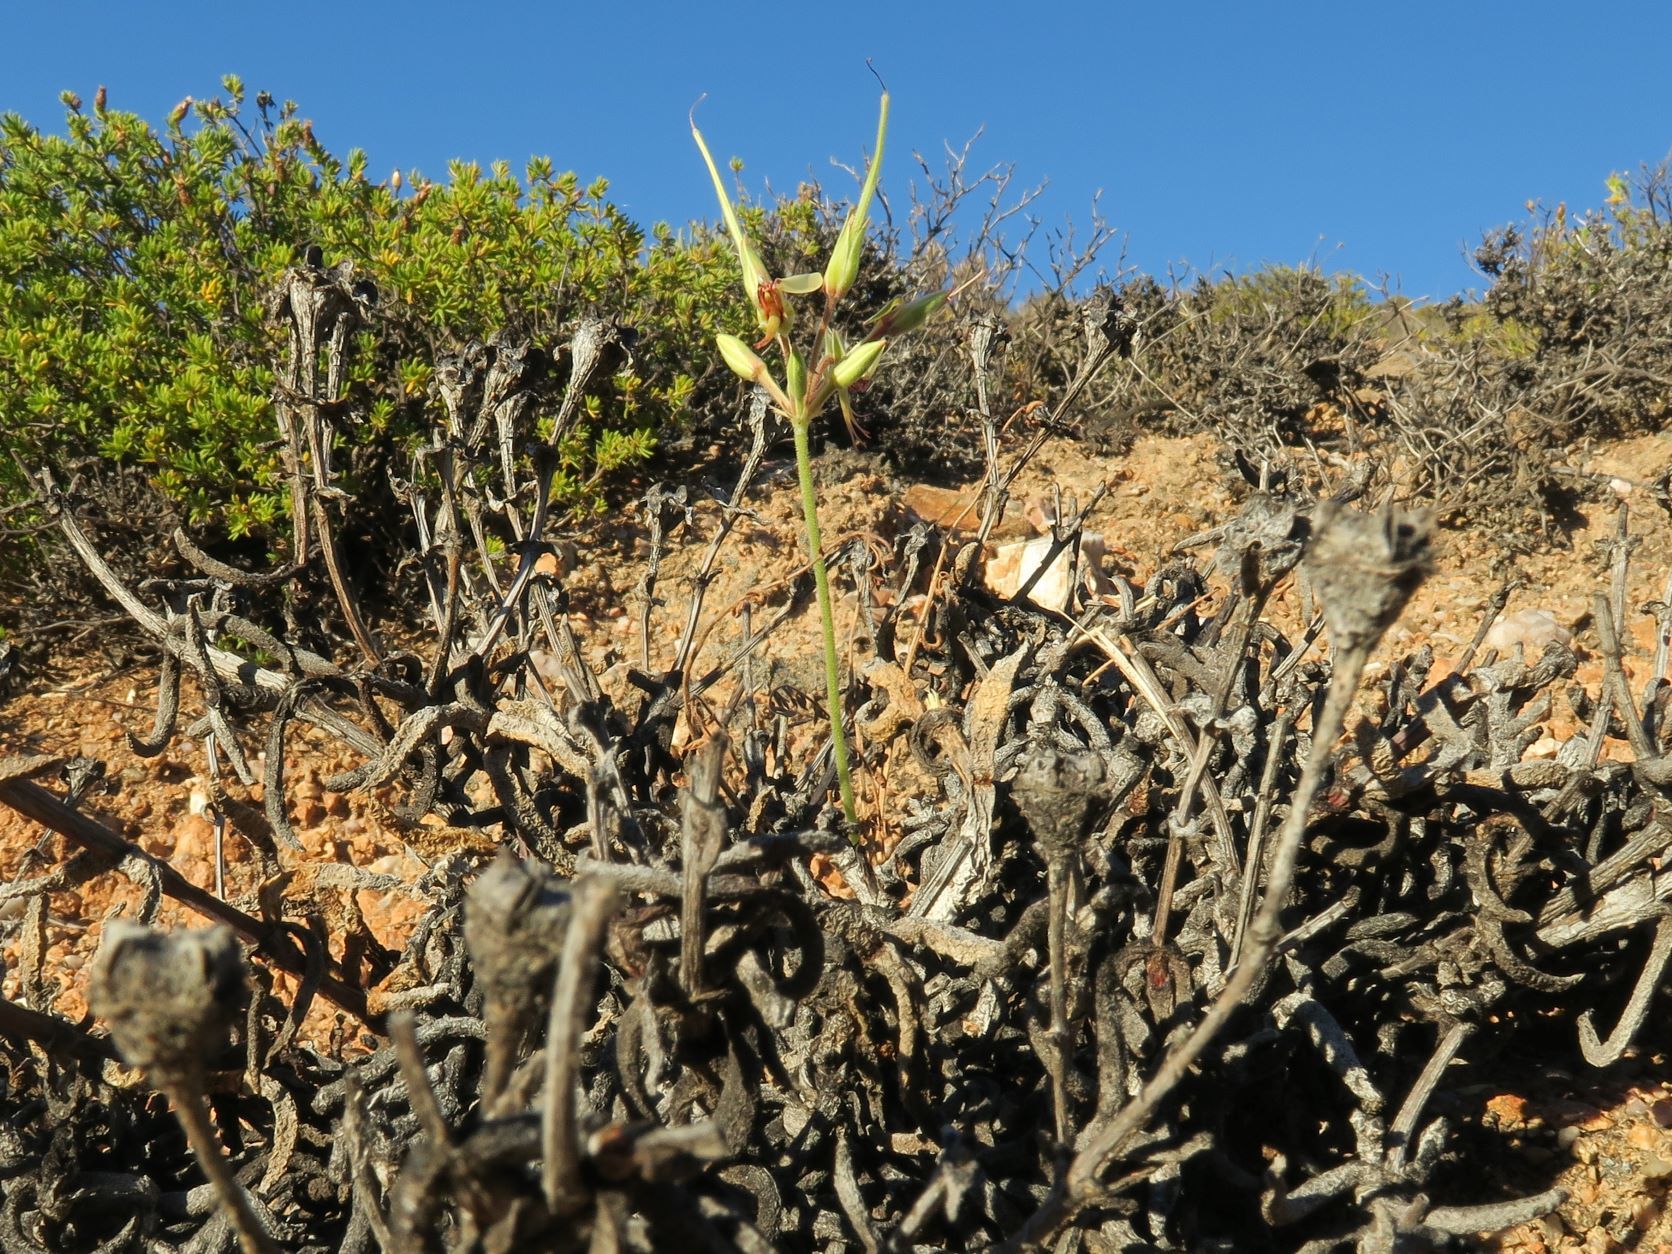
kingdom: Plantae
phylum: Tracheophyta
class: Magnoliopsida
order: Geraniales
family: Geraniaceae
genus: Pelargonium
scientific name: Pelargonium rapaceum
